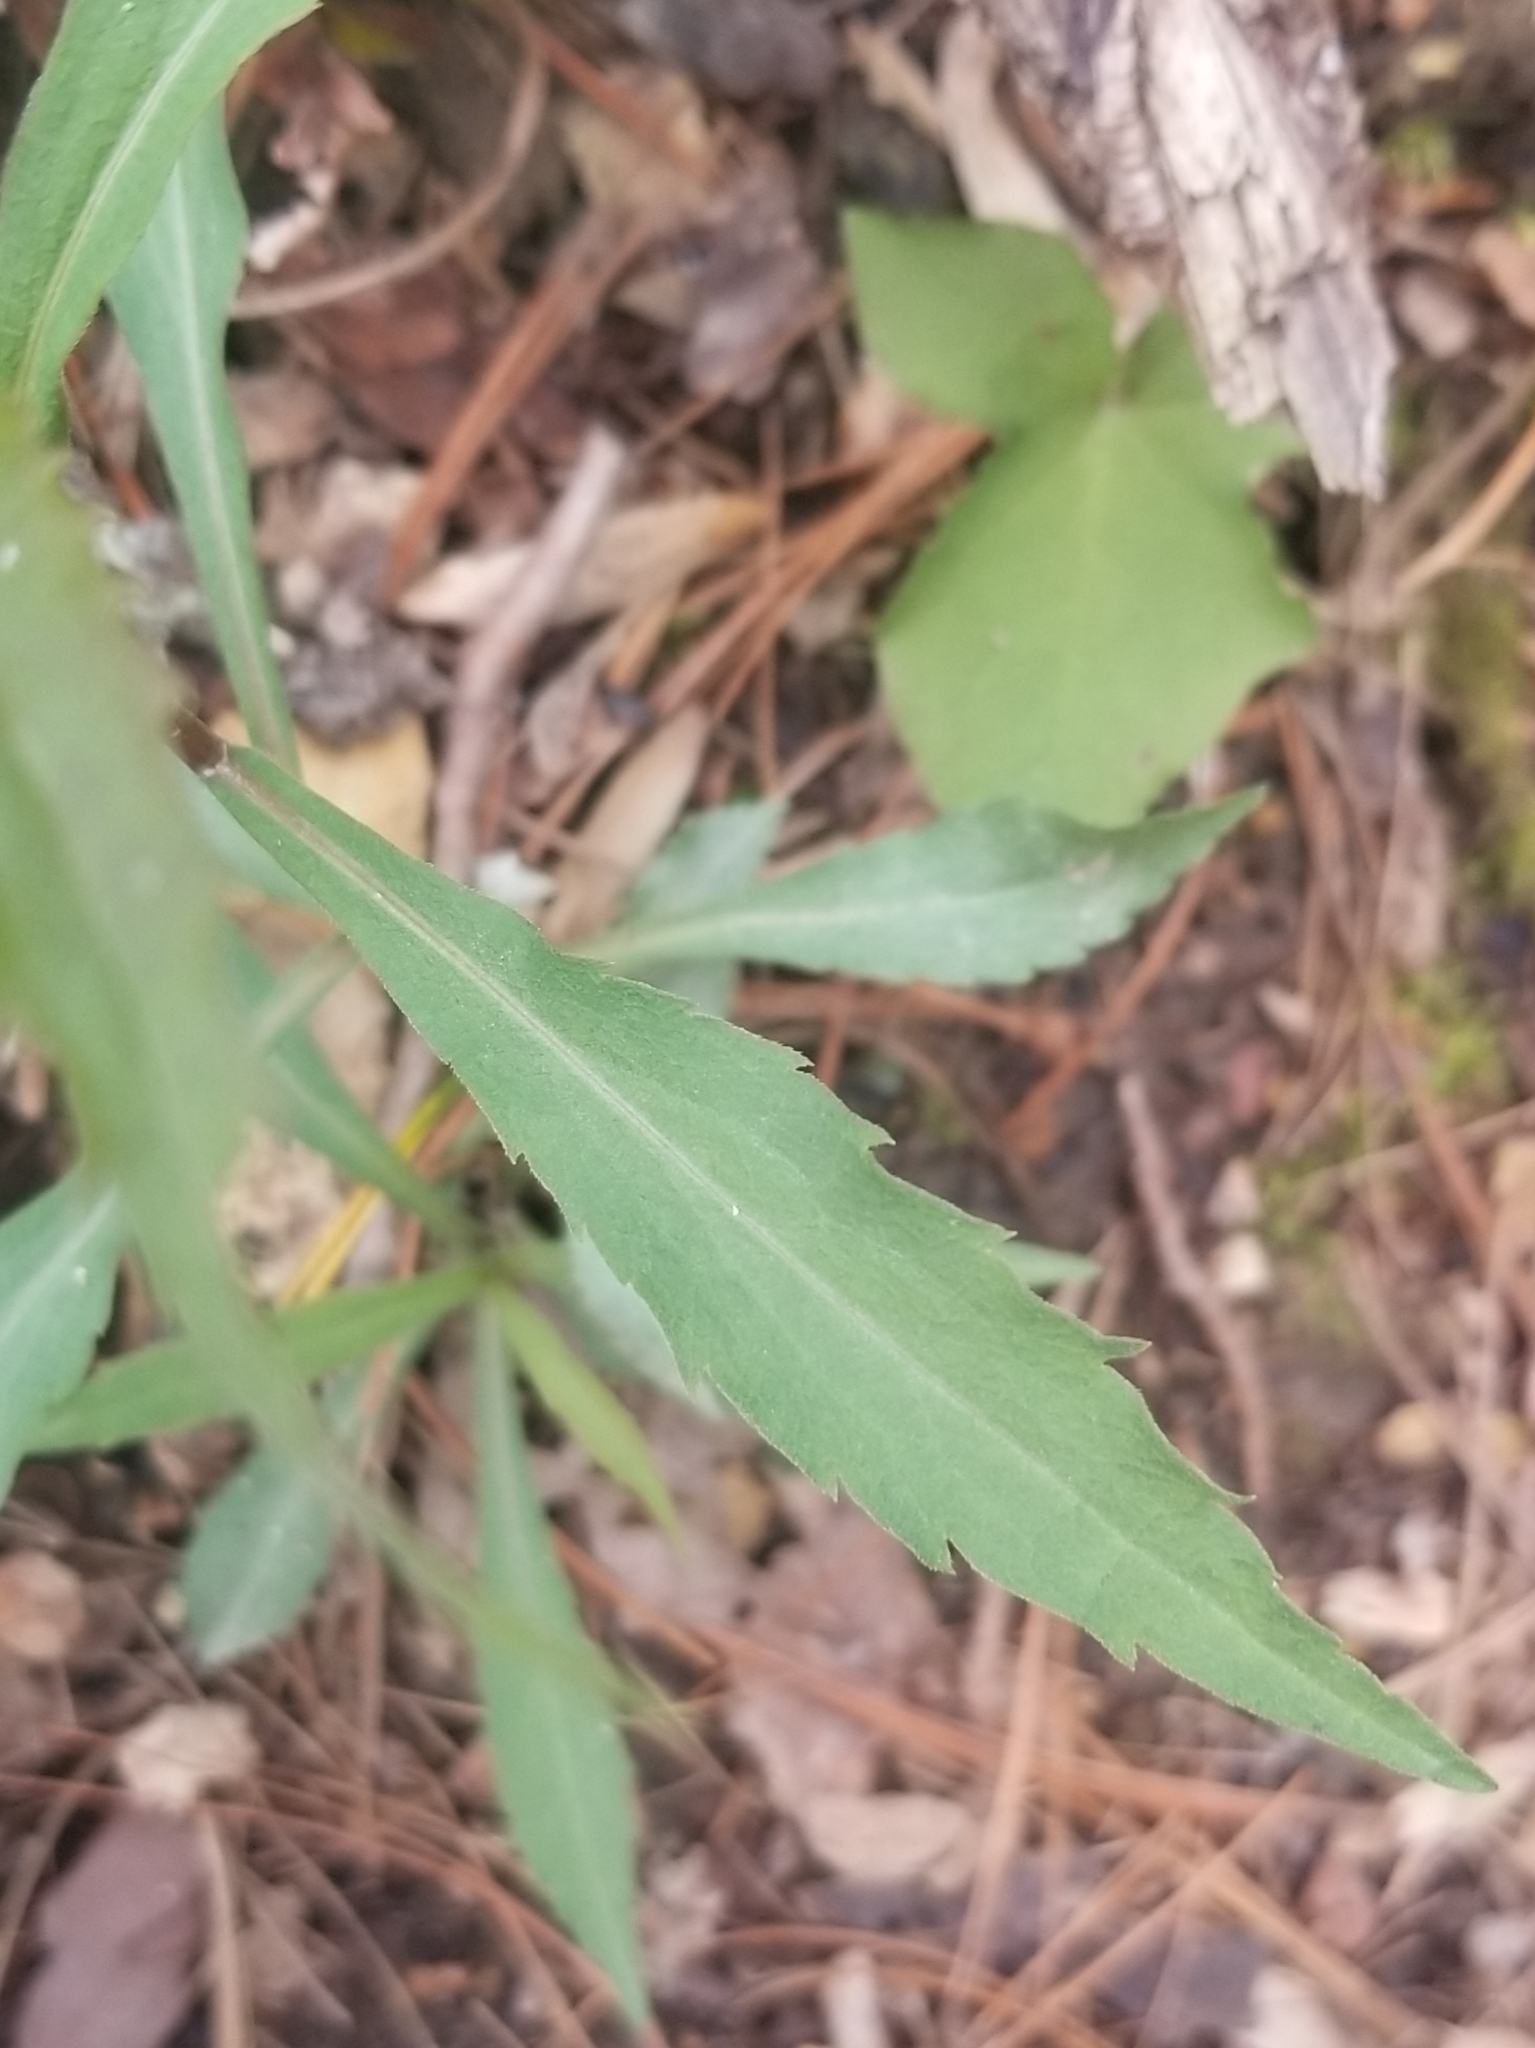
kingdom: Plantae
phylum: Tracheophyta
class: Magnoliopsida
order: Asterales
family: Asteraceae
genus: Solidago
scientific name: Solidago caesia
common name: Woodland goldenrod
